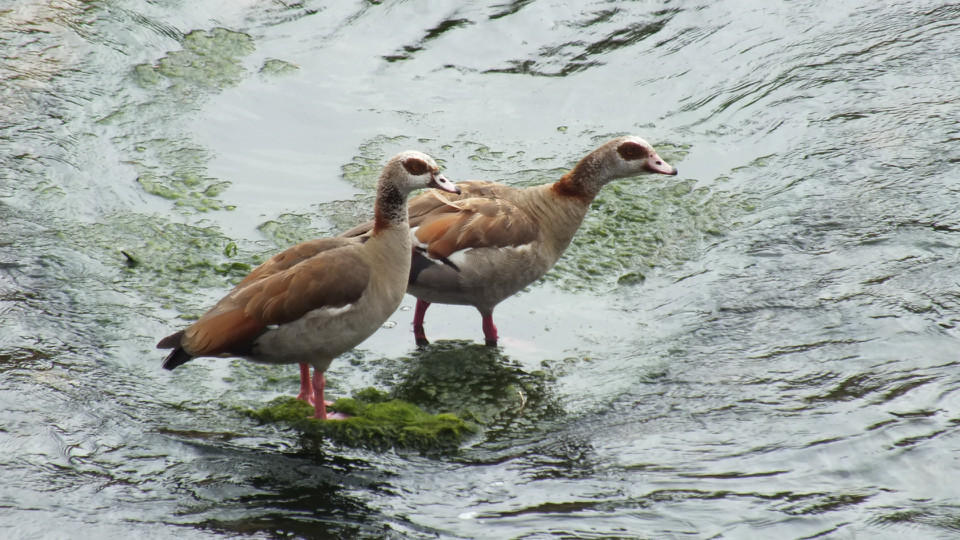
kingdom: Animalia
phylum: Chordata
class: Aves
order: Anseriformes
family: Anatidae
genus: Alopochen
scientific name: Alopochen aegyptiaca
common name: Egyptian goose
